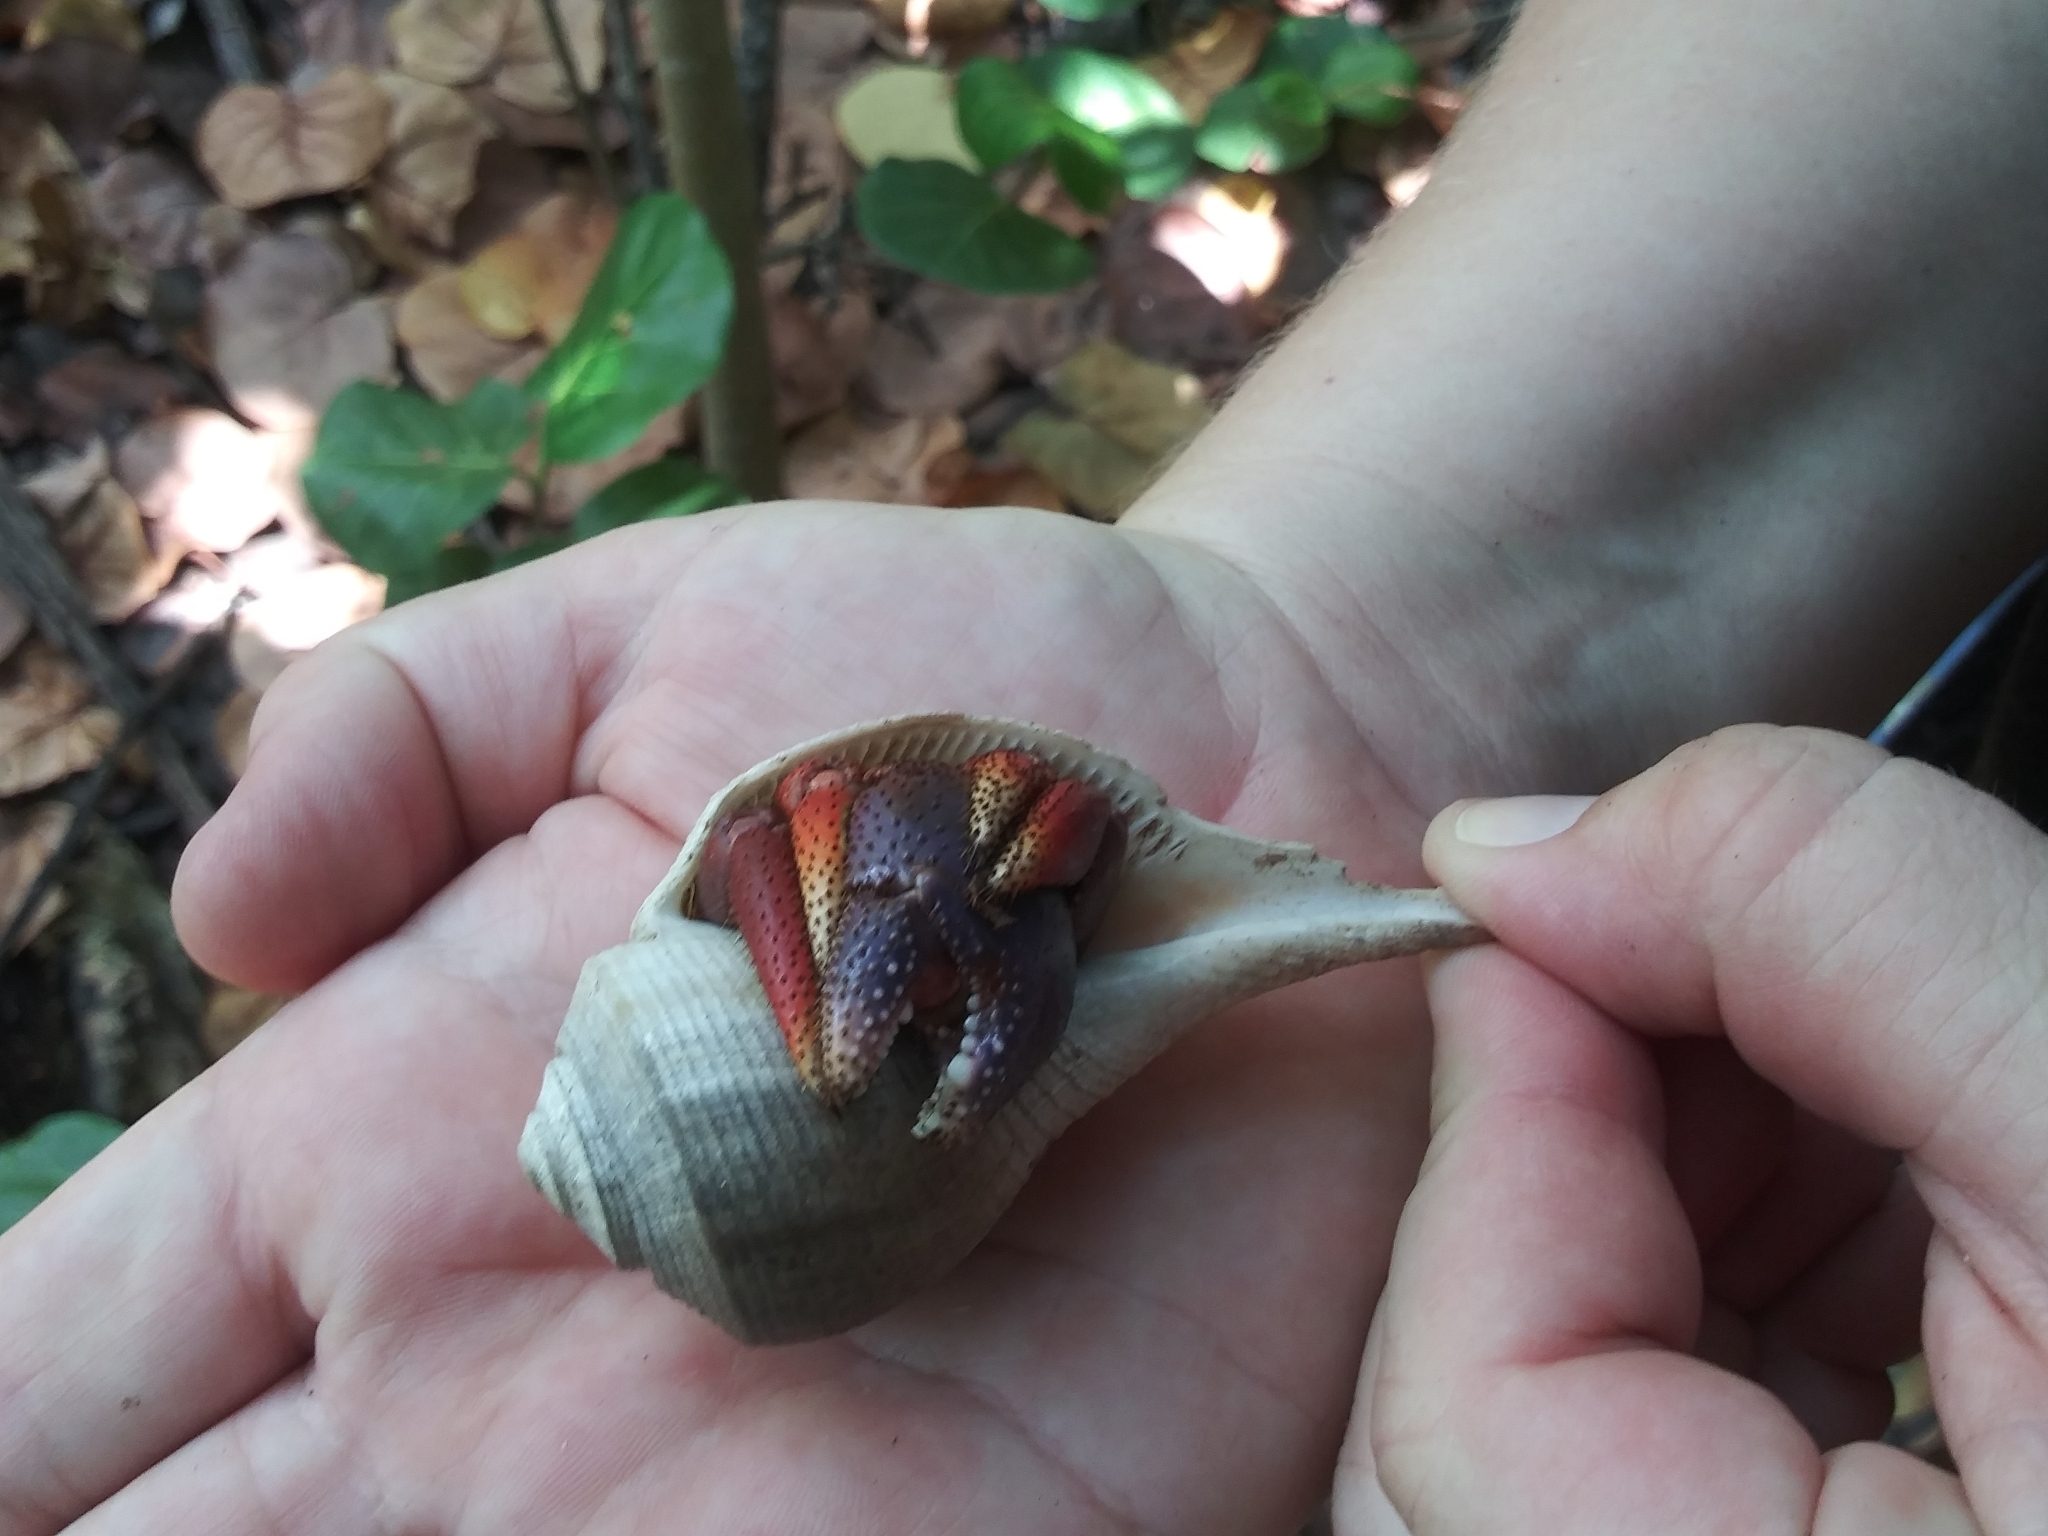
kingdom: Animalia
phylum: Arthropoda
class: Malacostraca
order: Decapoda
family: Coenobitidae
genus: Coenobita
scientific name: Coenobita clypeatus
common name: Caribbean hermit crab
